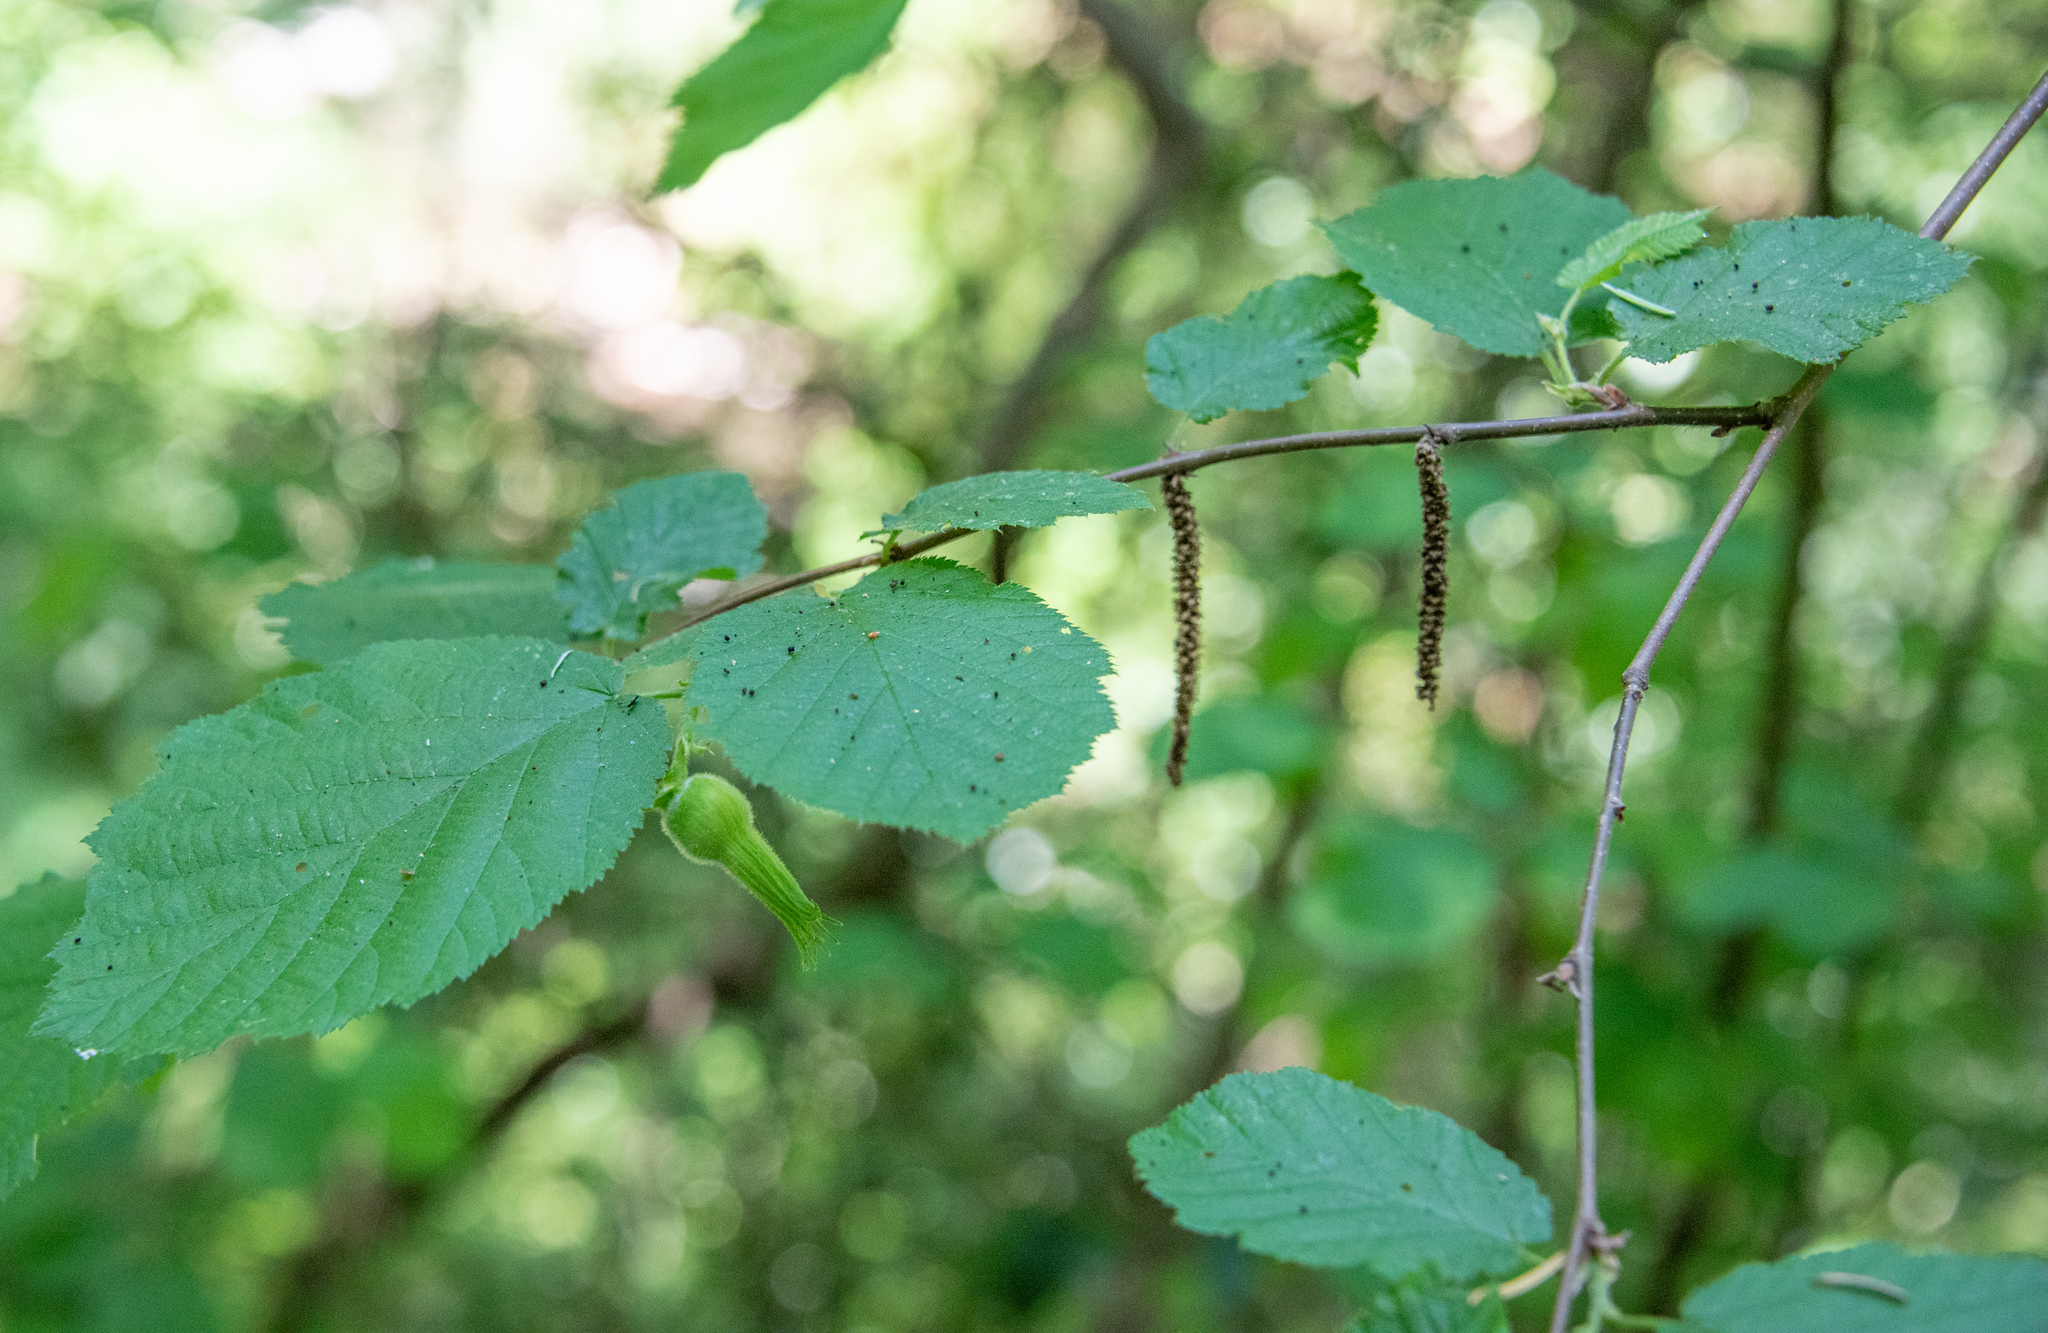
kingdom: Plantae
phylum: Tracheophyta
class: Magnoliopsida
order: Fagales
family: Betulaceae
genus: Corylus
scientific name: Corylus cornuta
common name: Beaked hazel
